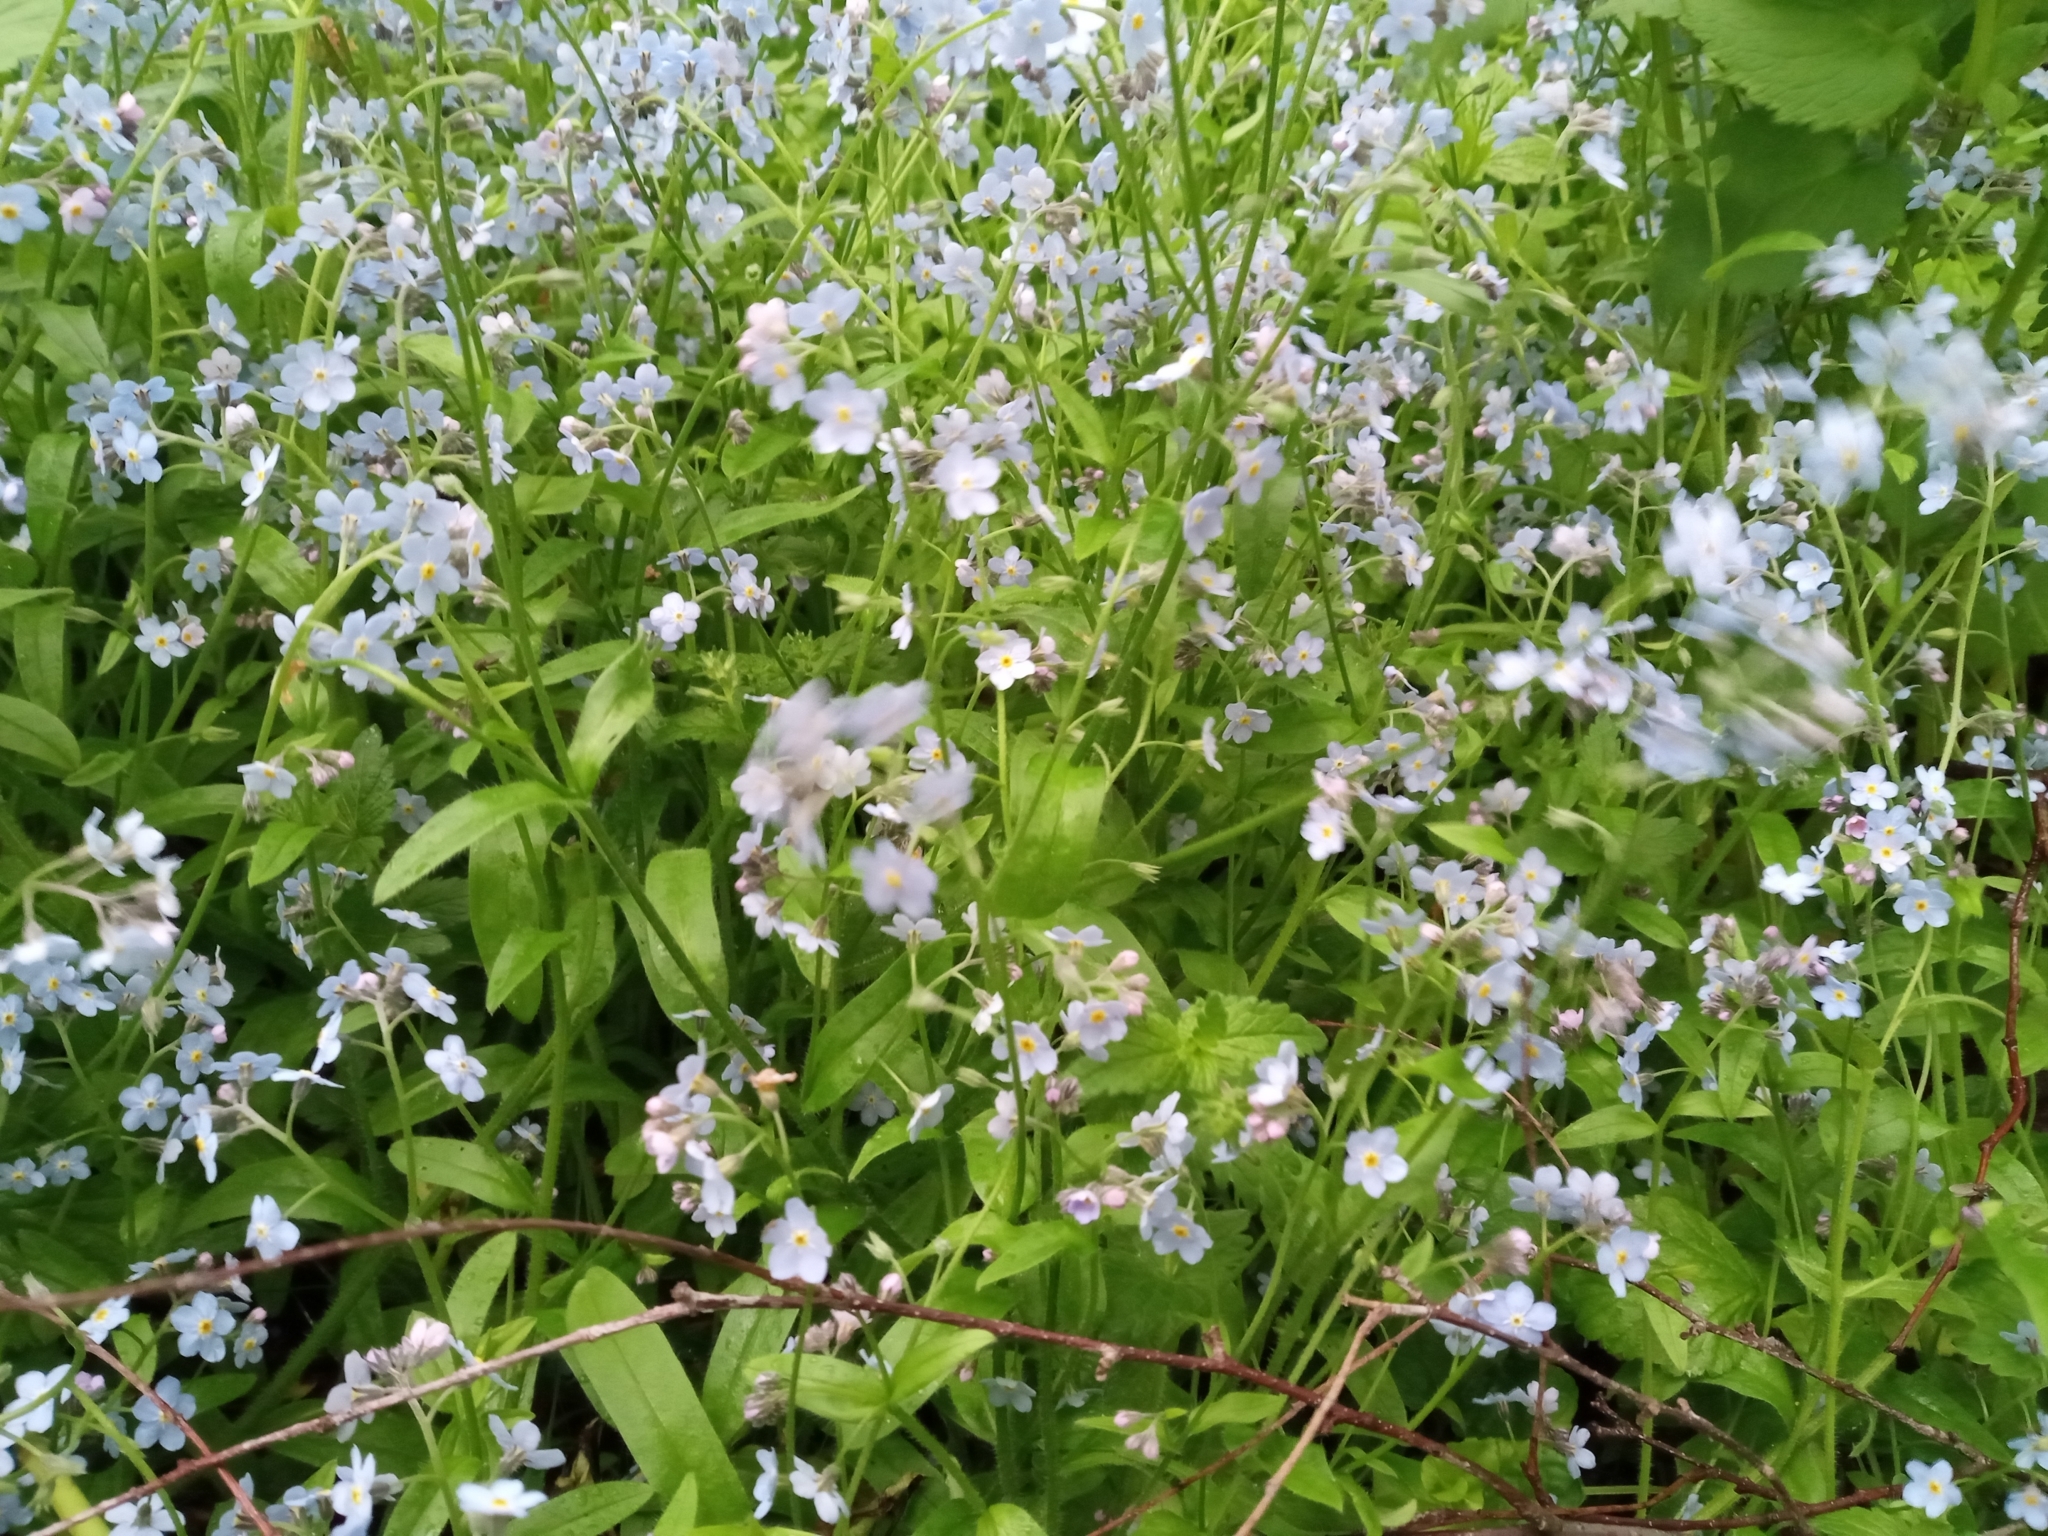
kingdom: Plantae
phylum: Tracheophyta
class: Magnoliopsida
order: Boraginales
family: Boraginaceae
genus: Myosotis
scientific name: Myosotis sylvatica
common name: Wood forget-me-not
